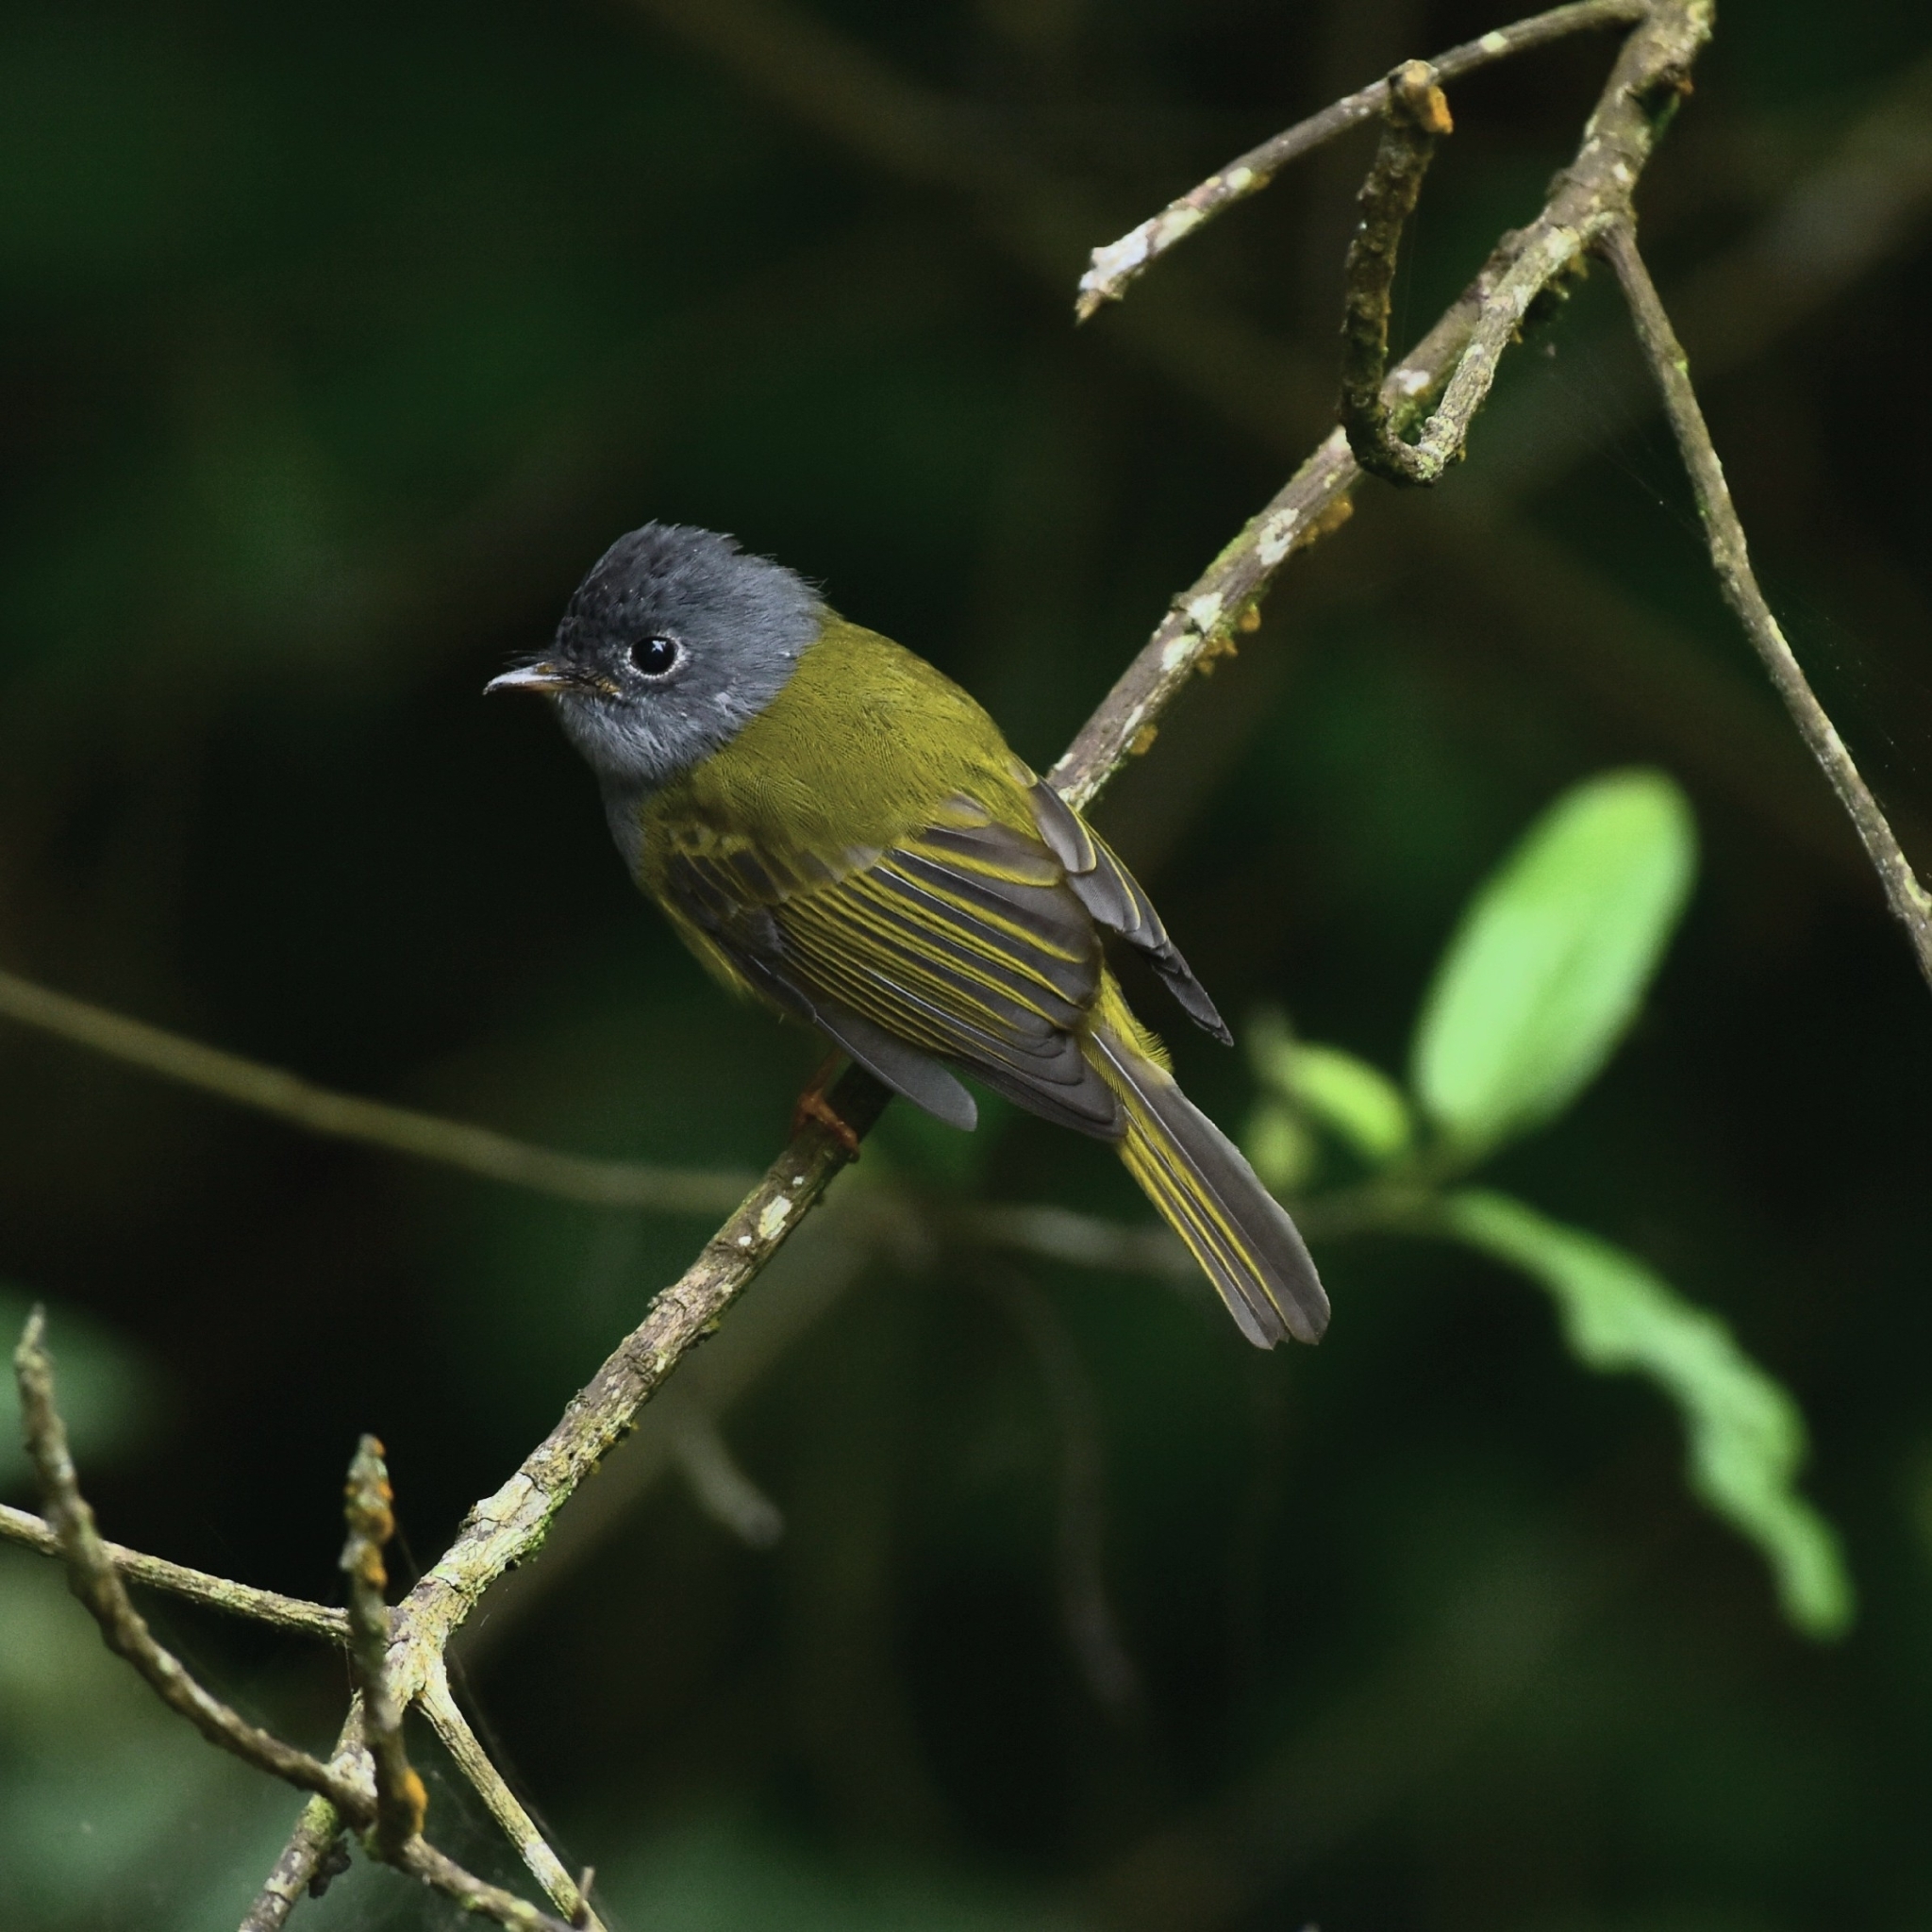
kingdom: Animalia
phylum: Chordata
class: Aves
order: Passeriformes
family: Stenostiridae
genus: Culicicapa
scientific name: Culicicapa ceylonensis
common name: Grey-headed canary-flycatcher
